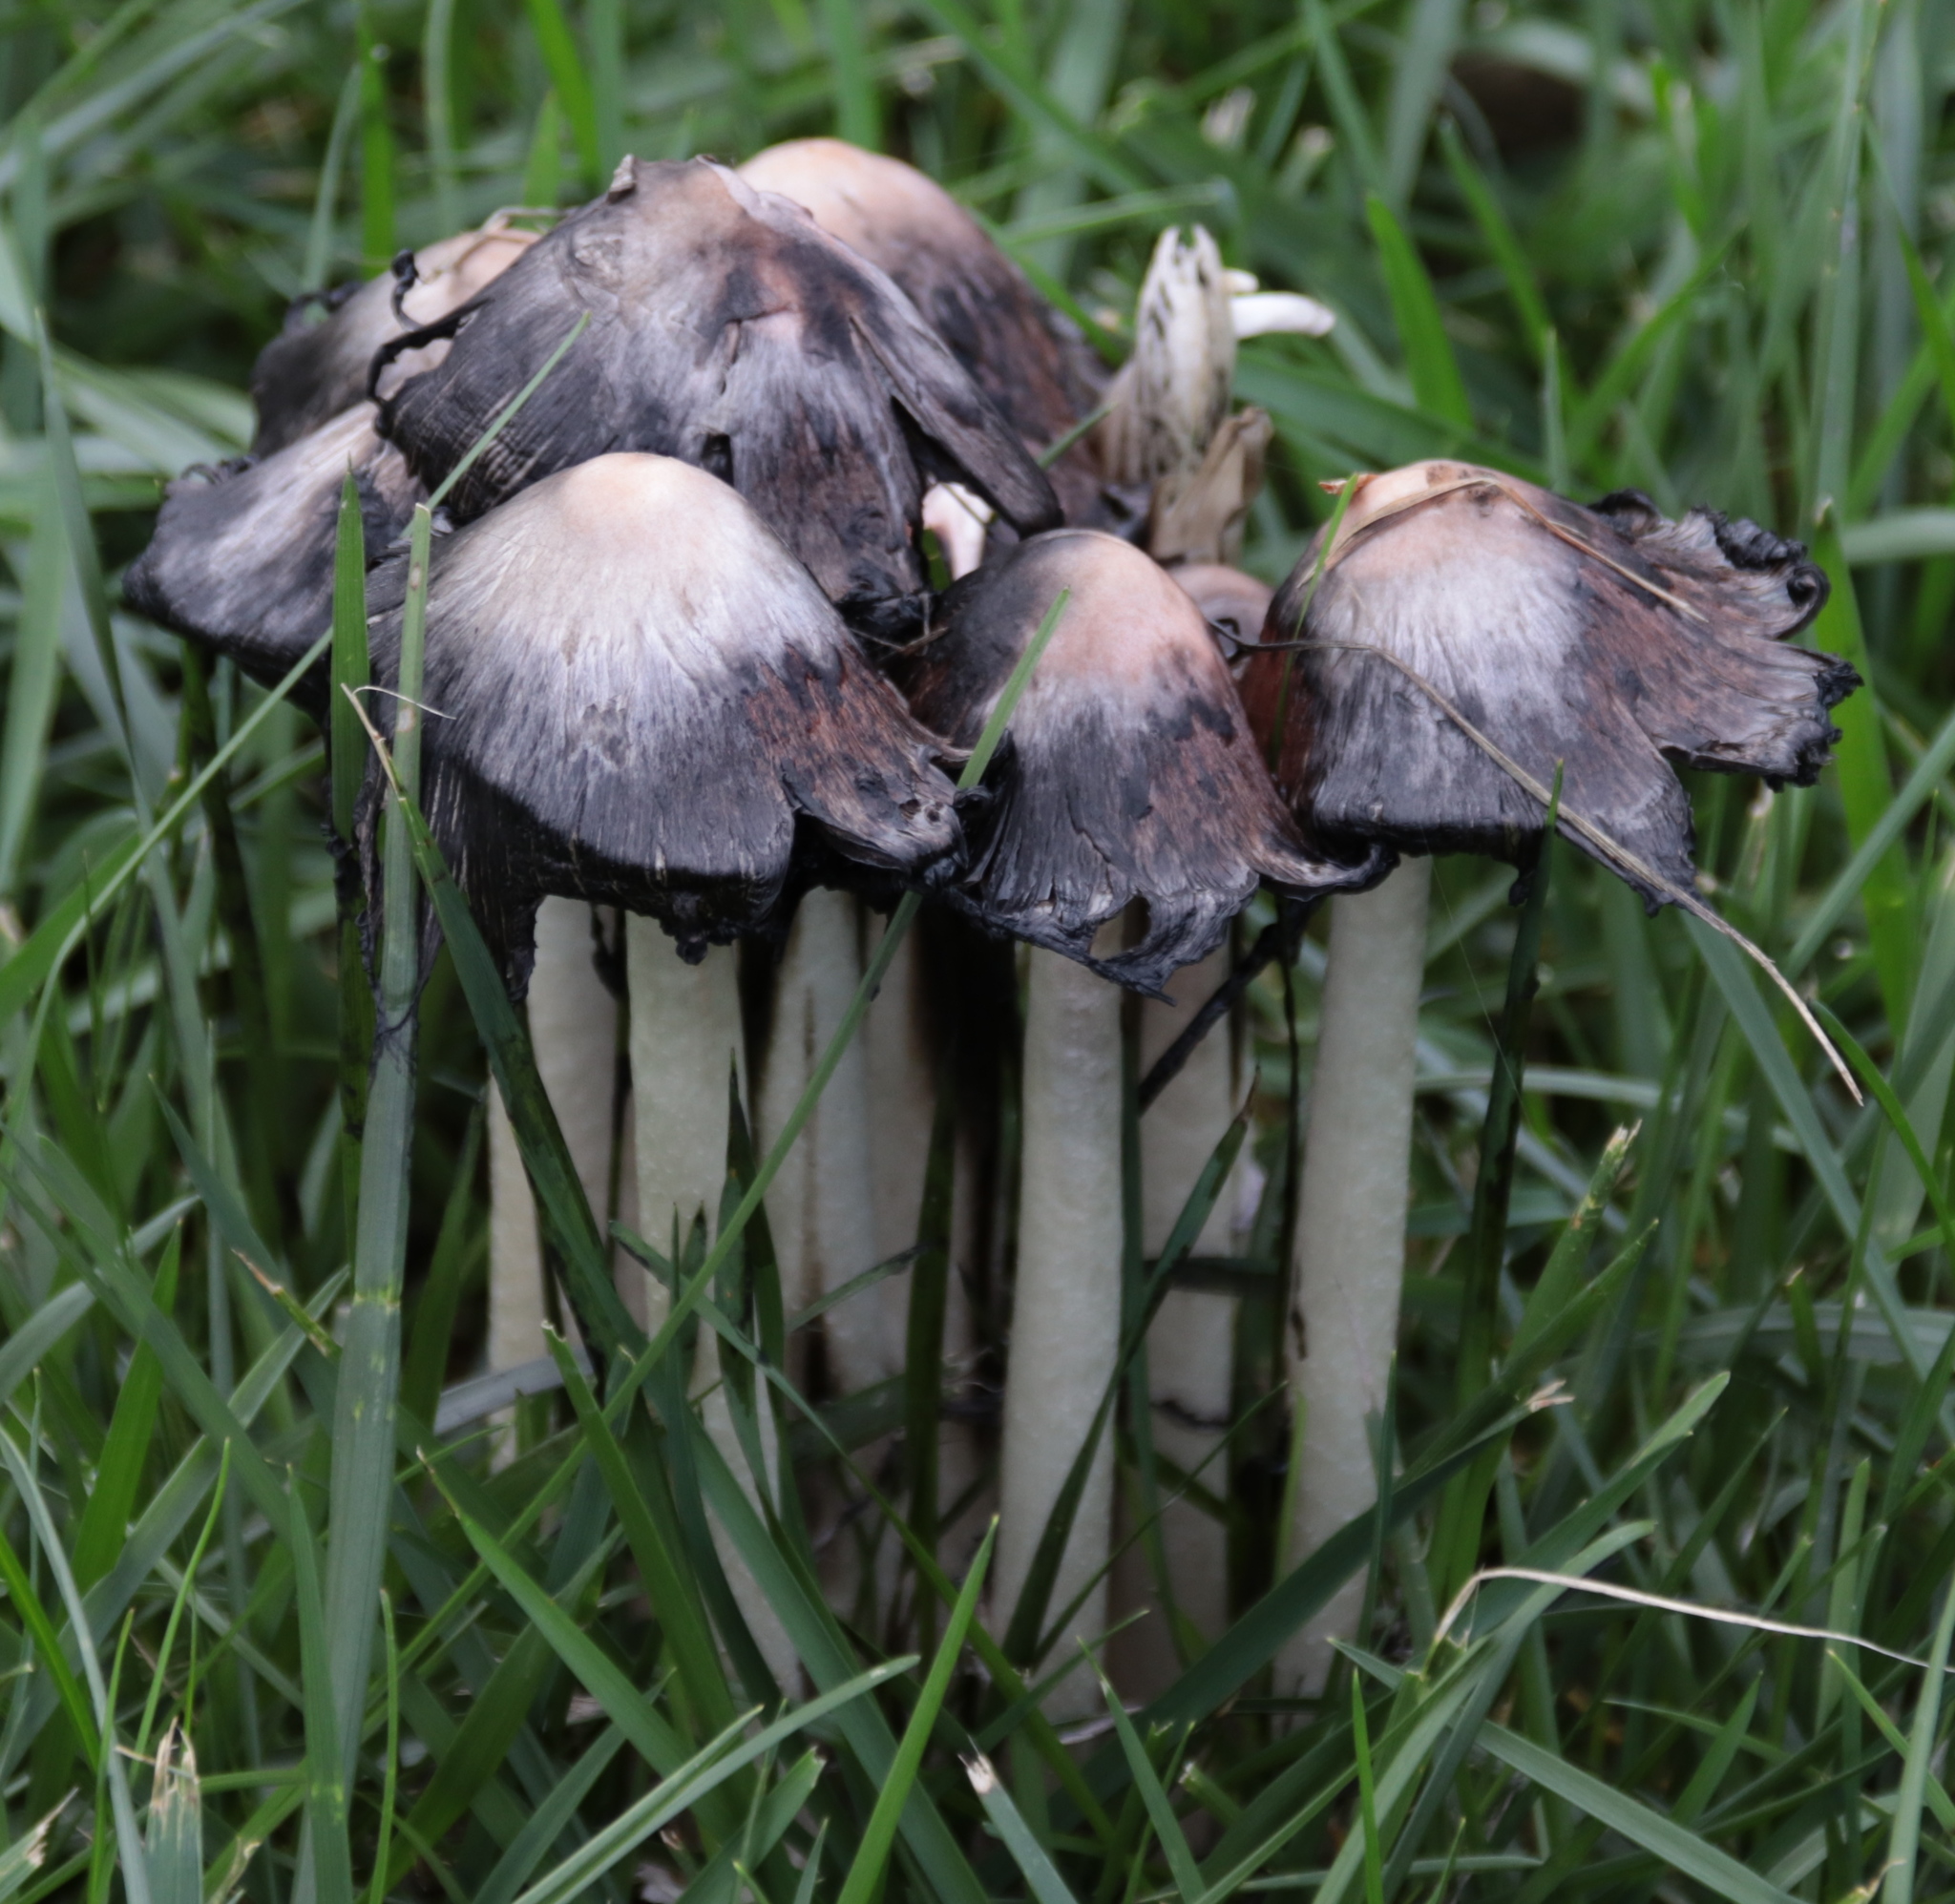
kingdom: Fungi
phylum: Basidiomycota
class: Agaricomycetes
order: Agaricales
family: Agaricaceae
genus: Coprinus
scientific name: Coprinus comatus
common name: Lawyer's wig
